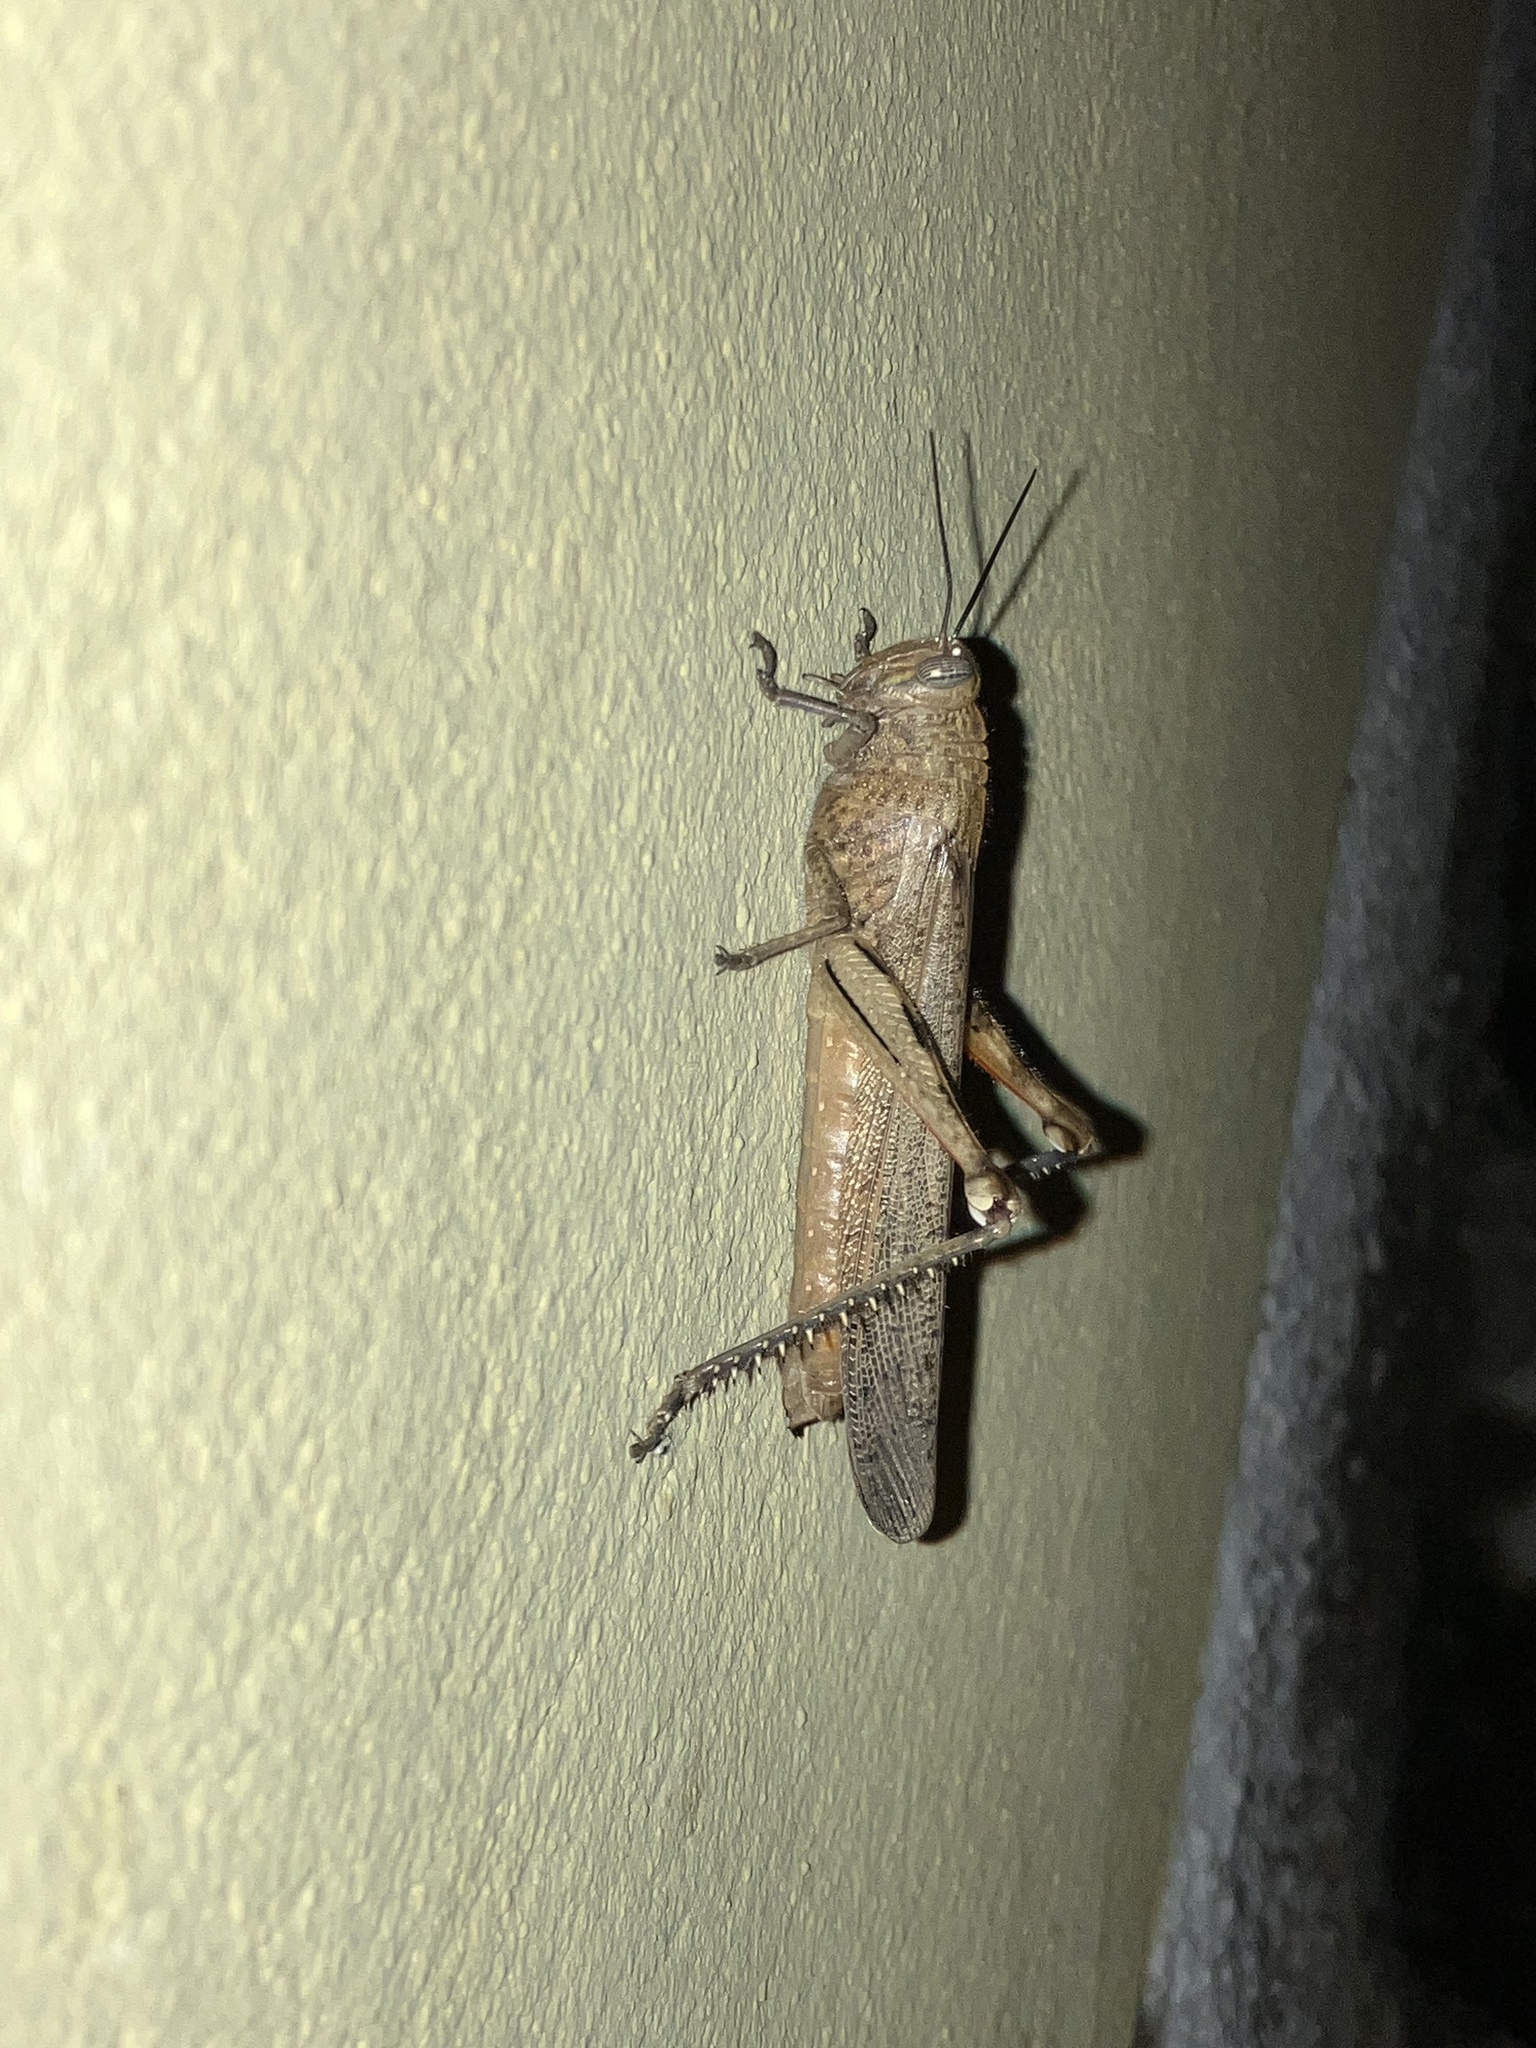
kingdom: Animalia
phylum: Arthropoda
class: Insecta
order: Orthoptera
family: Acrididae
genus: Anacridium
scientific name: Anacridium aegyptium
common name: Egyptian grasshopper
